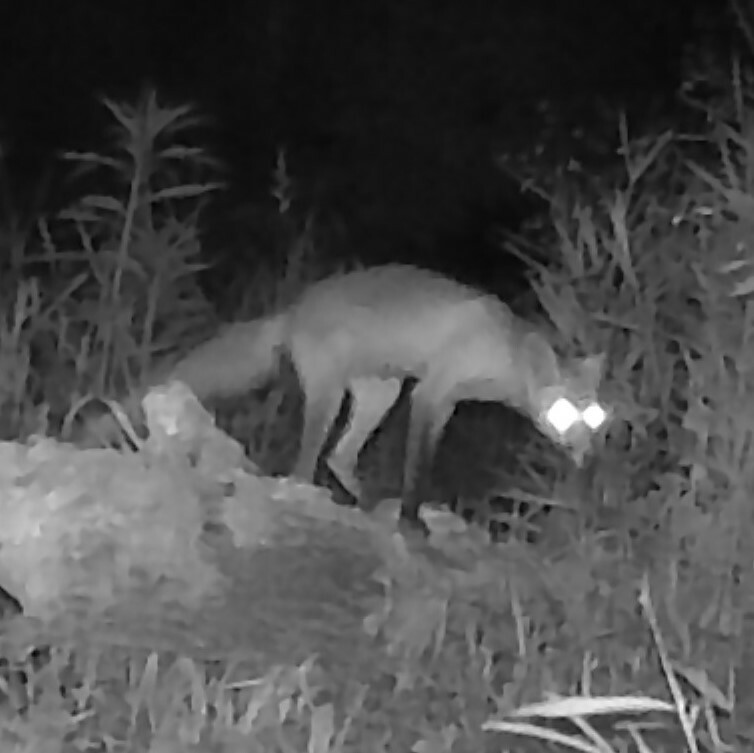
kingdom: Animalia
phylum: Chordata
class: Mammalia
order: Carnivora
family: Canidae
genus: Vulpes
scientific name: Vulpes vulpes
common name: Red fox
